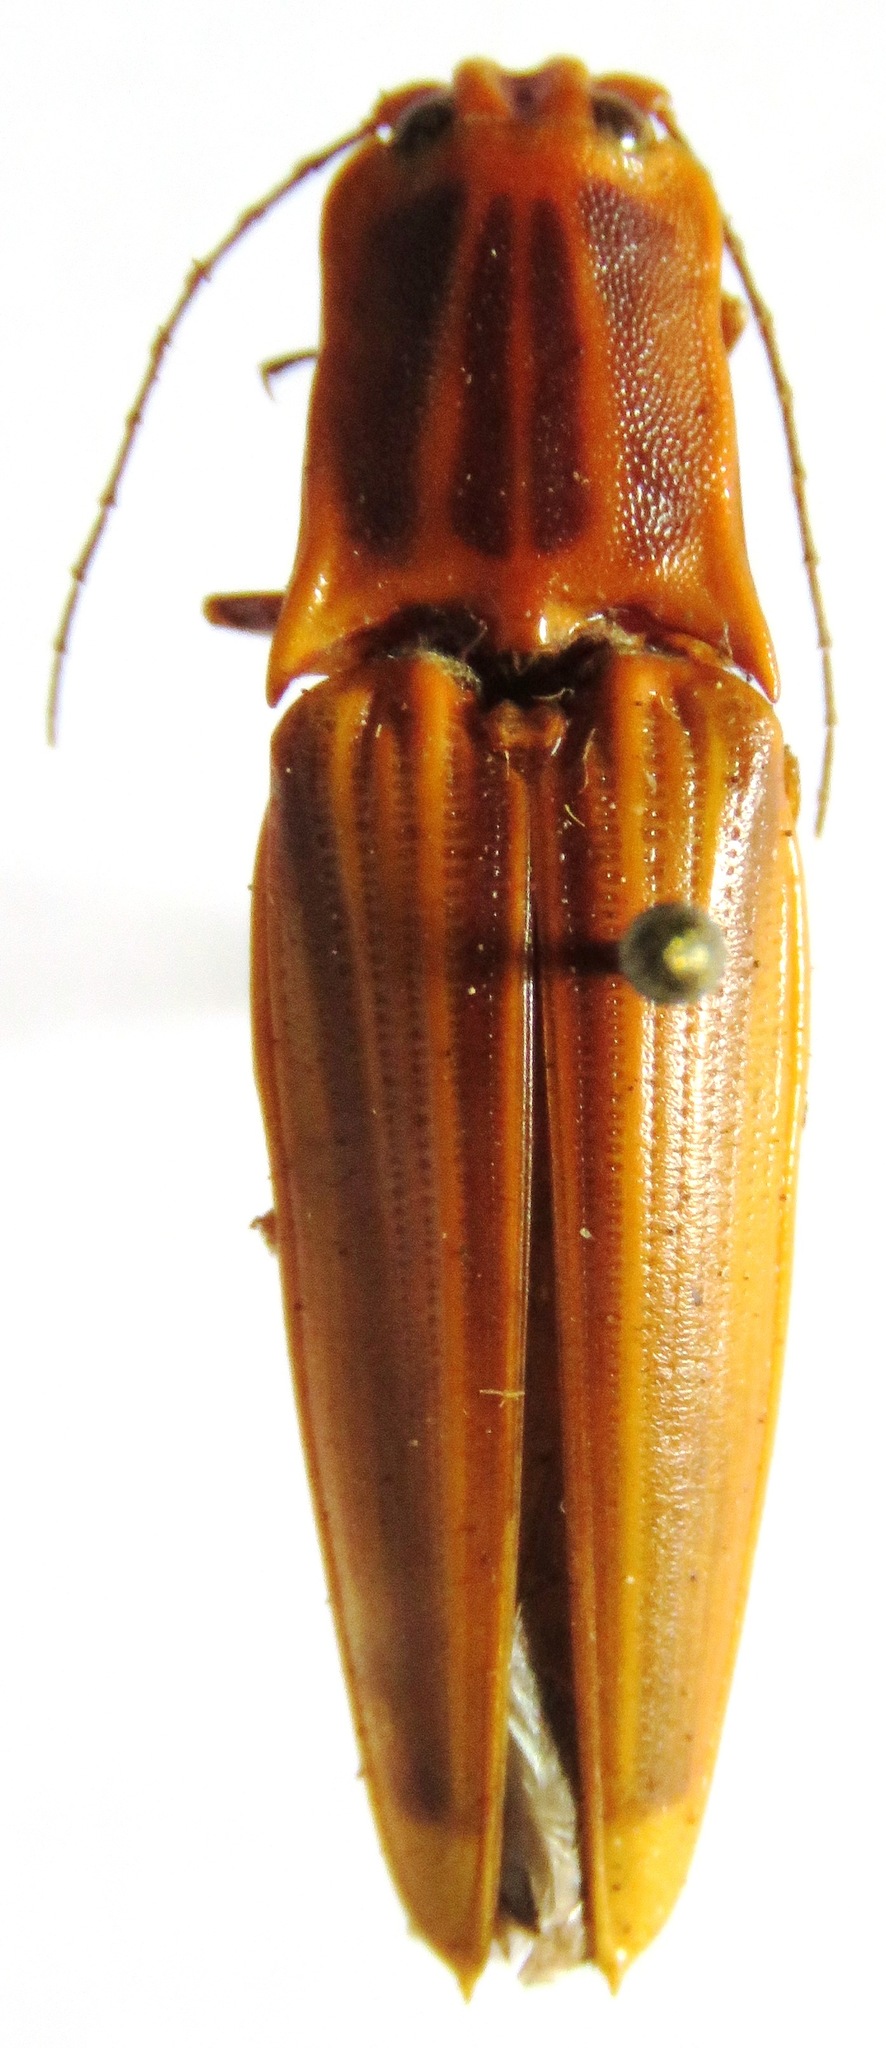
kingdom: Animalia
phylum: Arthropoda
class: Insecta
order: Coleoptera
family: Elateridae
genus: Semiotus
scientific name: Semiotus ligneus
